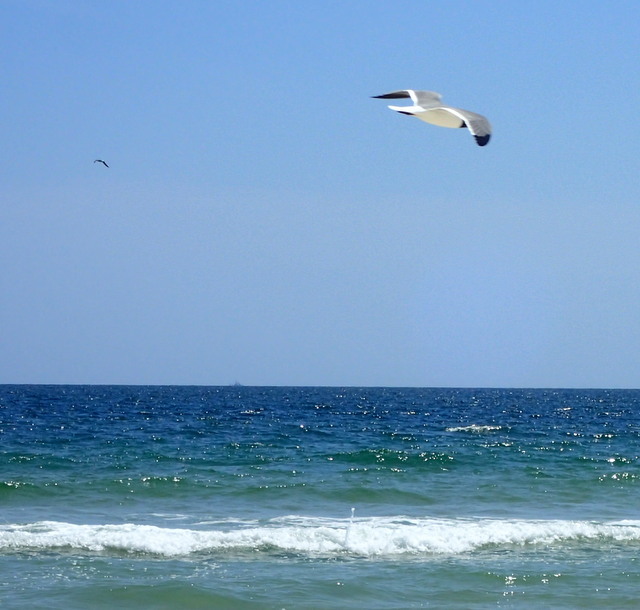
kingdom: Animalia
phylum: Chordata
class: Aves
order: Charadriiformes
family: Laridae
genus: Leucophaeus
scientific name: Leucophaeus atricilla
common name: Laughing gull
